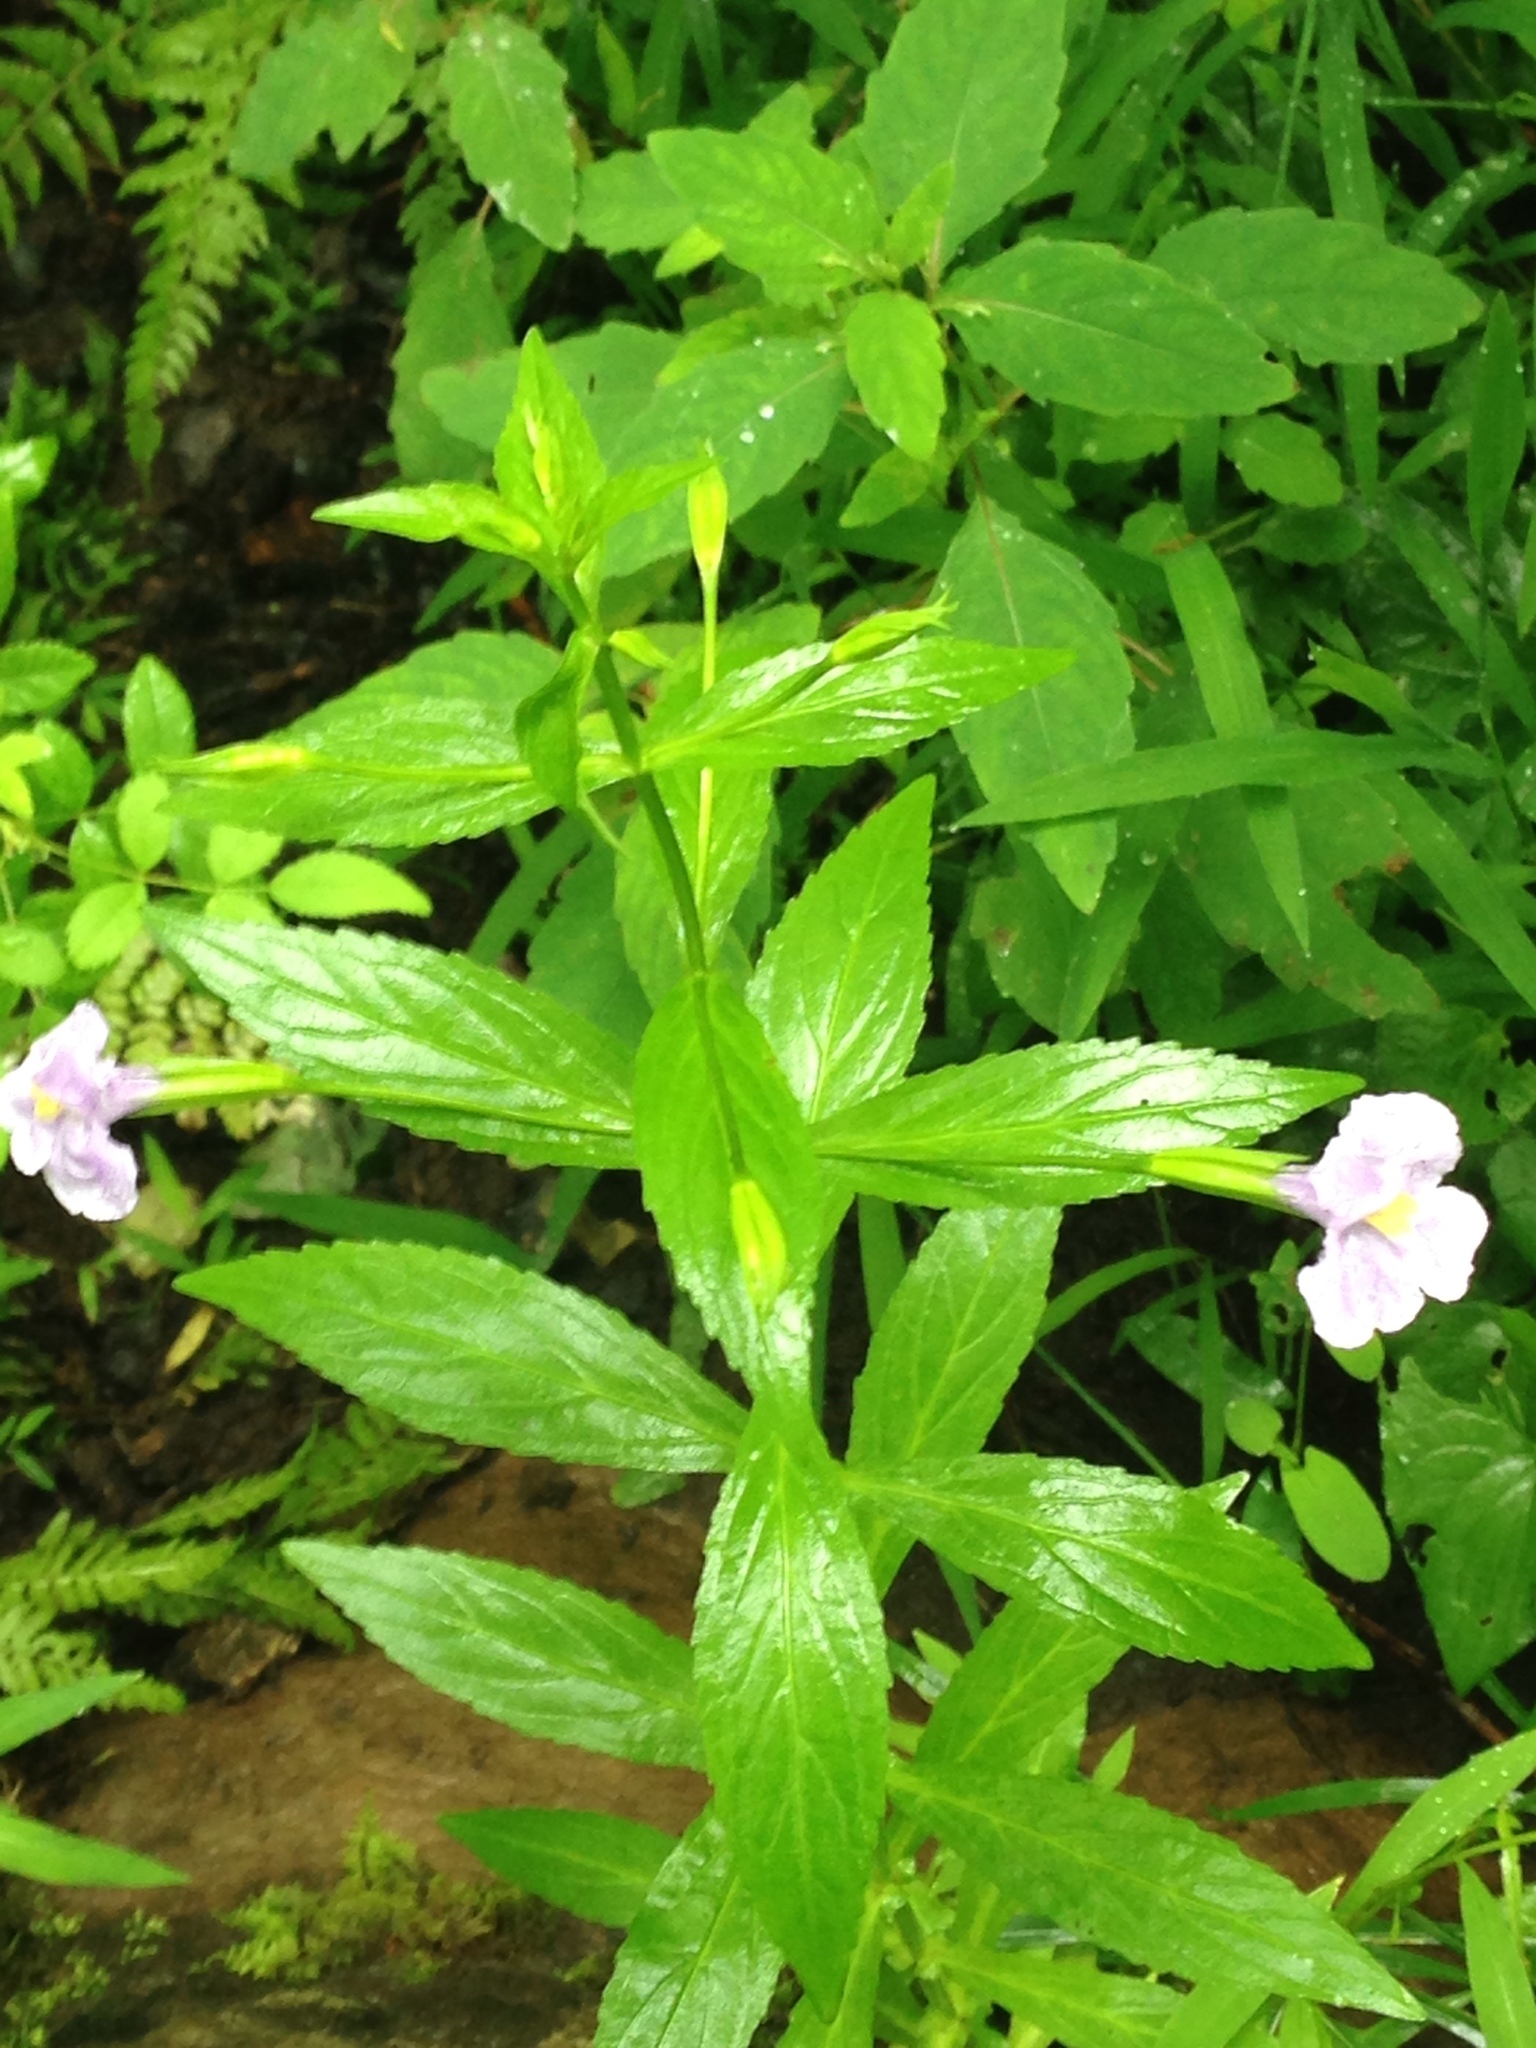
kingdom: Plantae
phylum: Tracheophyta
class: Magnoliopsida
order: Lamiales
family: Phrymaceae
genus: Mimulus
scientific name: Mimulus ringens
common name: Allegheny monkeyflower
